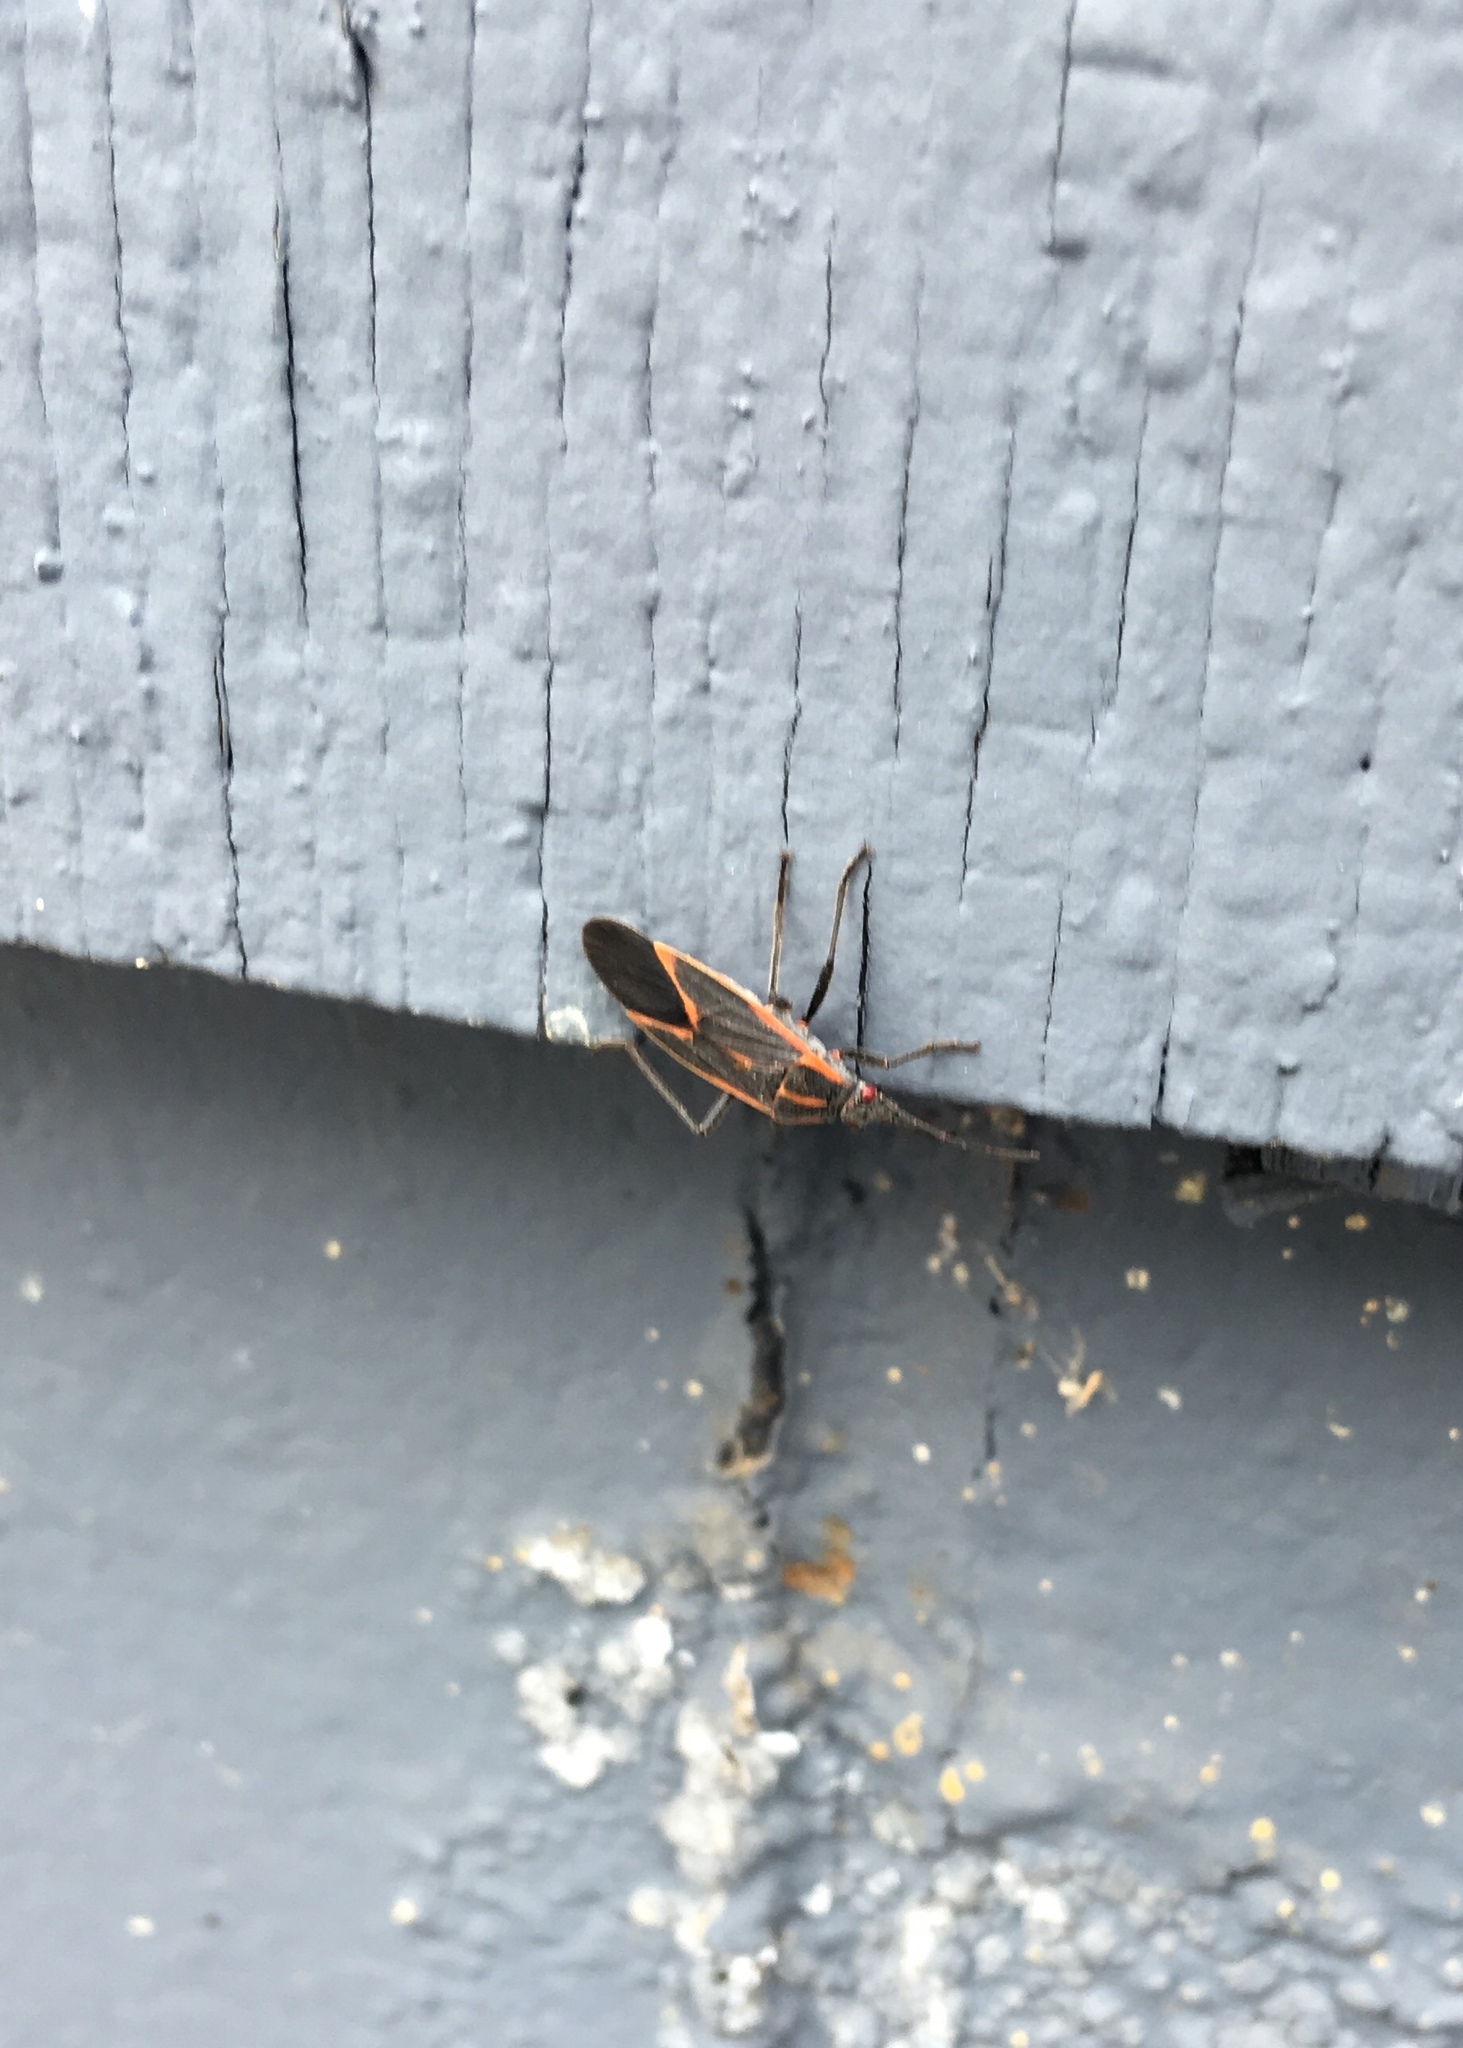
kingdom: Animalia
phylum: Arthropoda
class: Insecta
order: Hemiptera
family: Rhopalidae
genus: Boisea
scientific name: Boisea trivittata
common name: Boxelder bug
